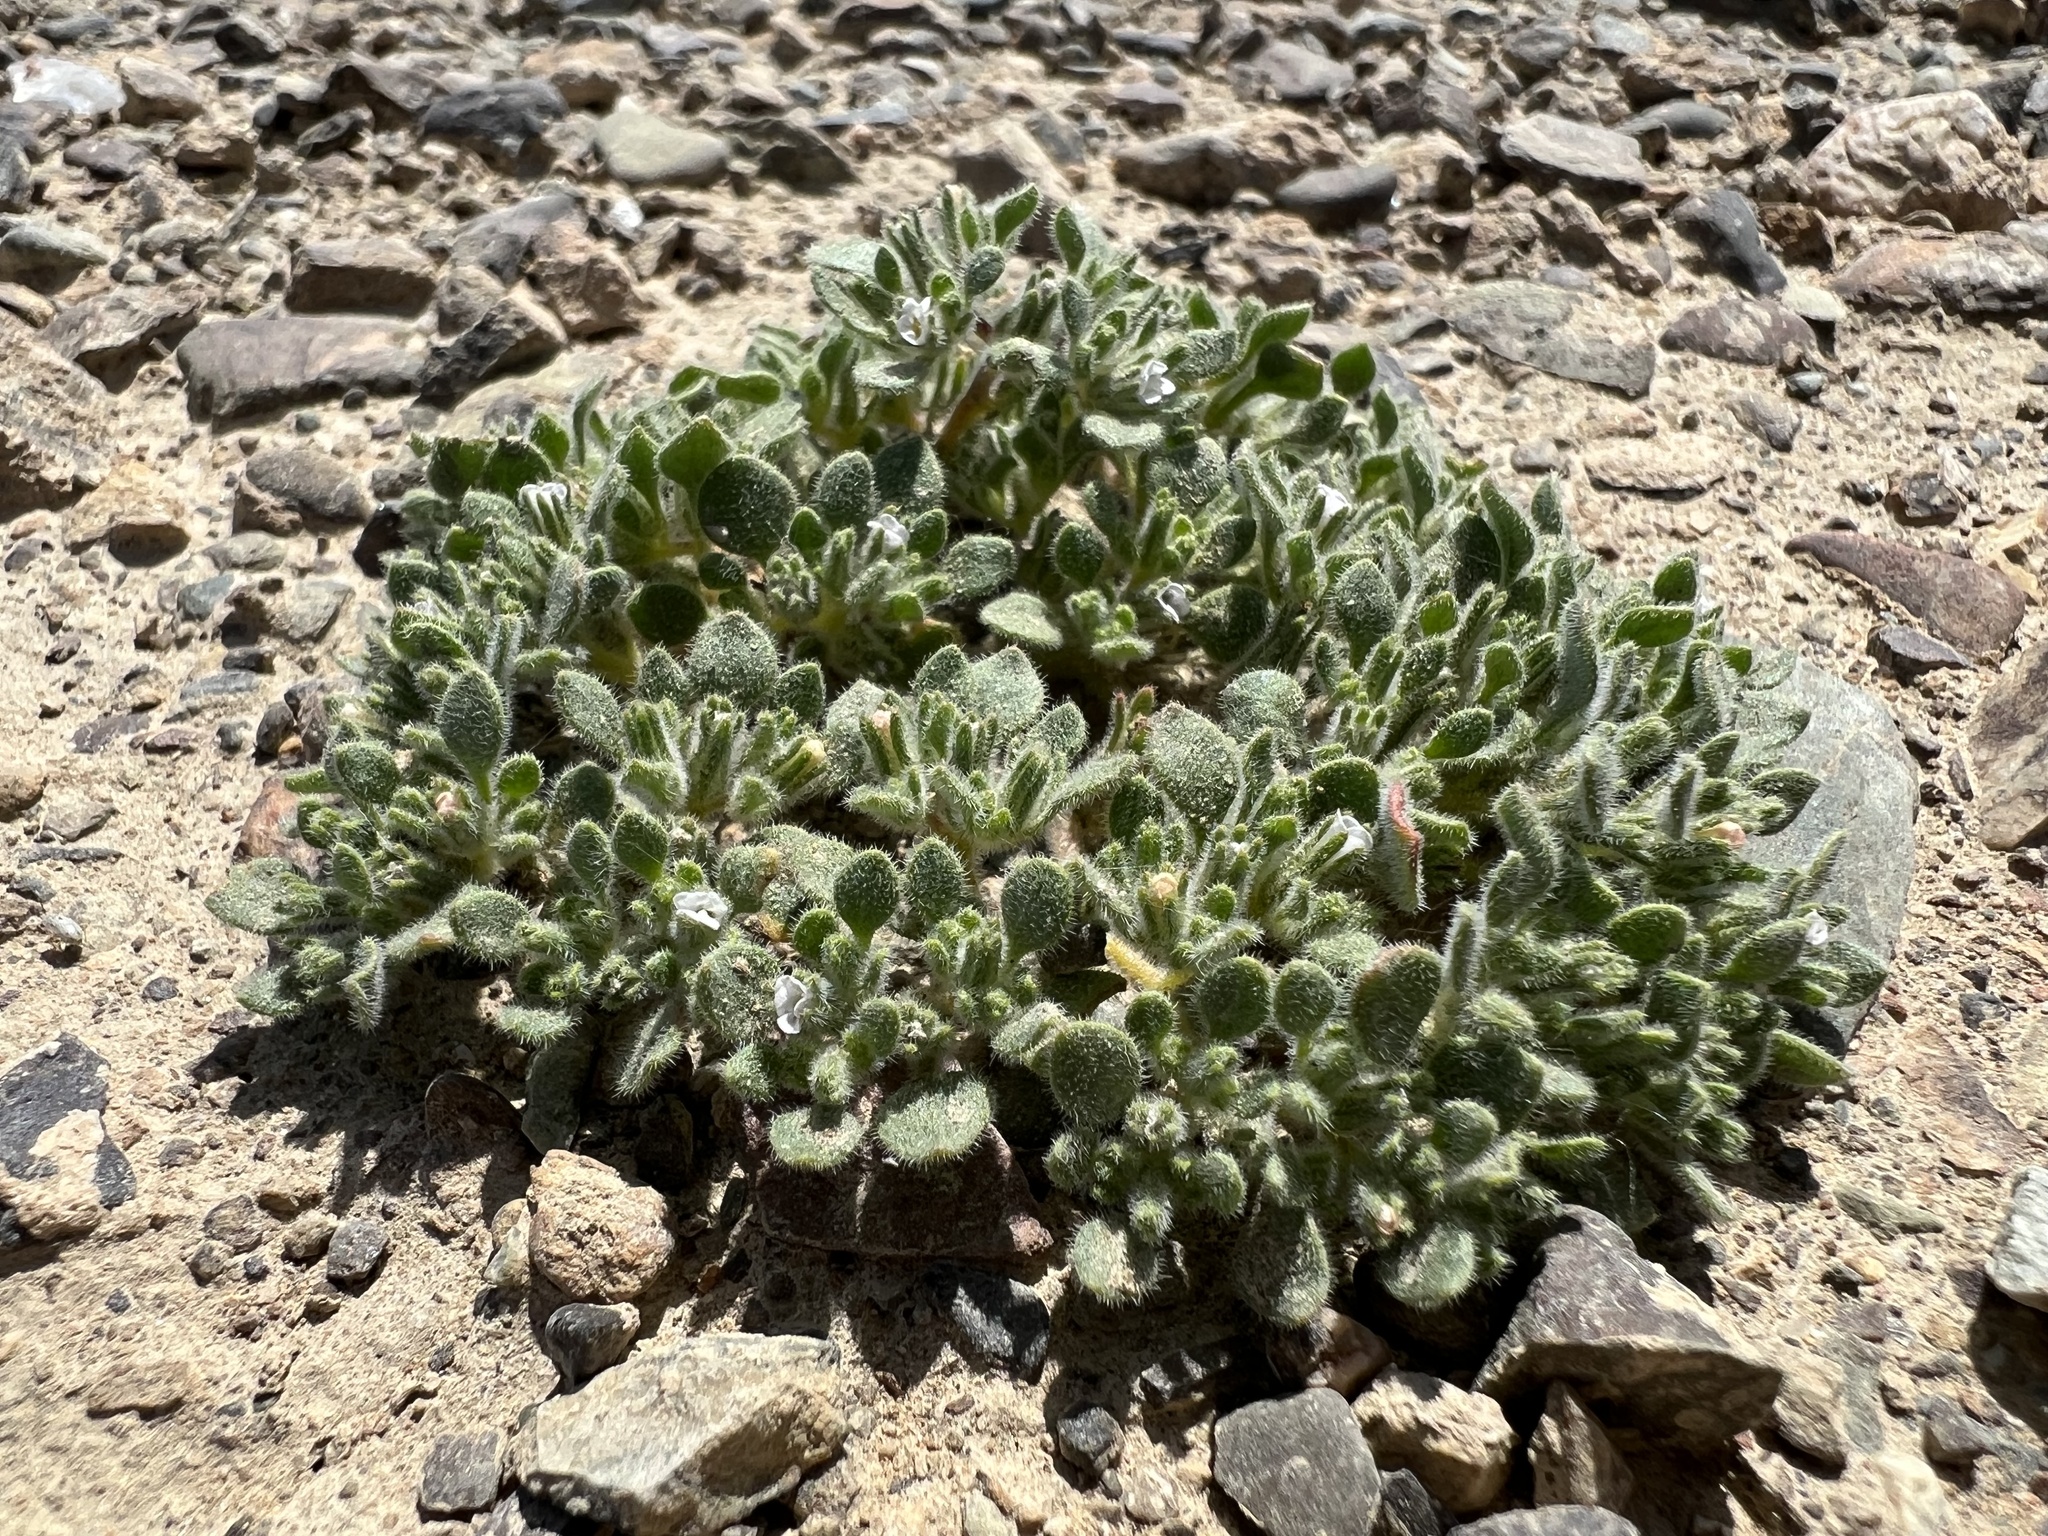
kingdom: Plantae
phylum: Tracheophyta
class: Magnoliopsida
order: Boraginales
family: Namaceae
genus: Nama
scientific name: Nama pusilla
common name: Eggleaf nama
